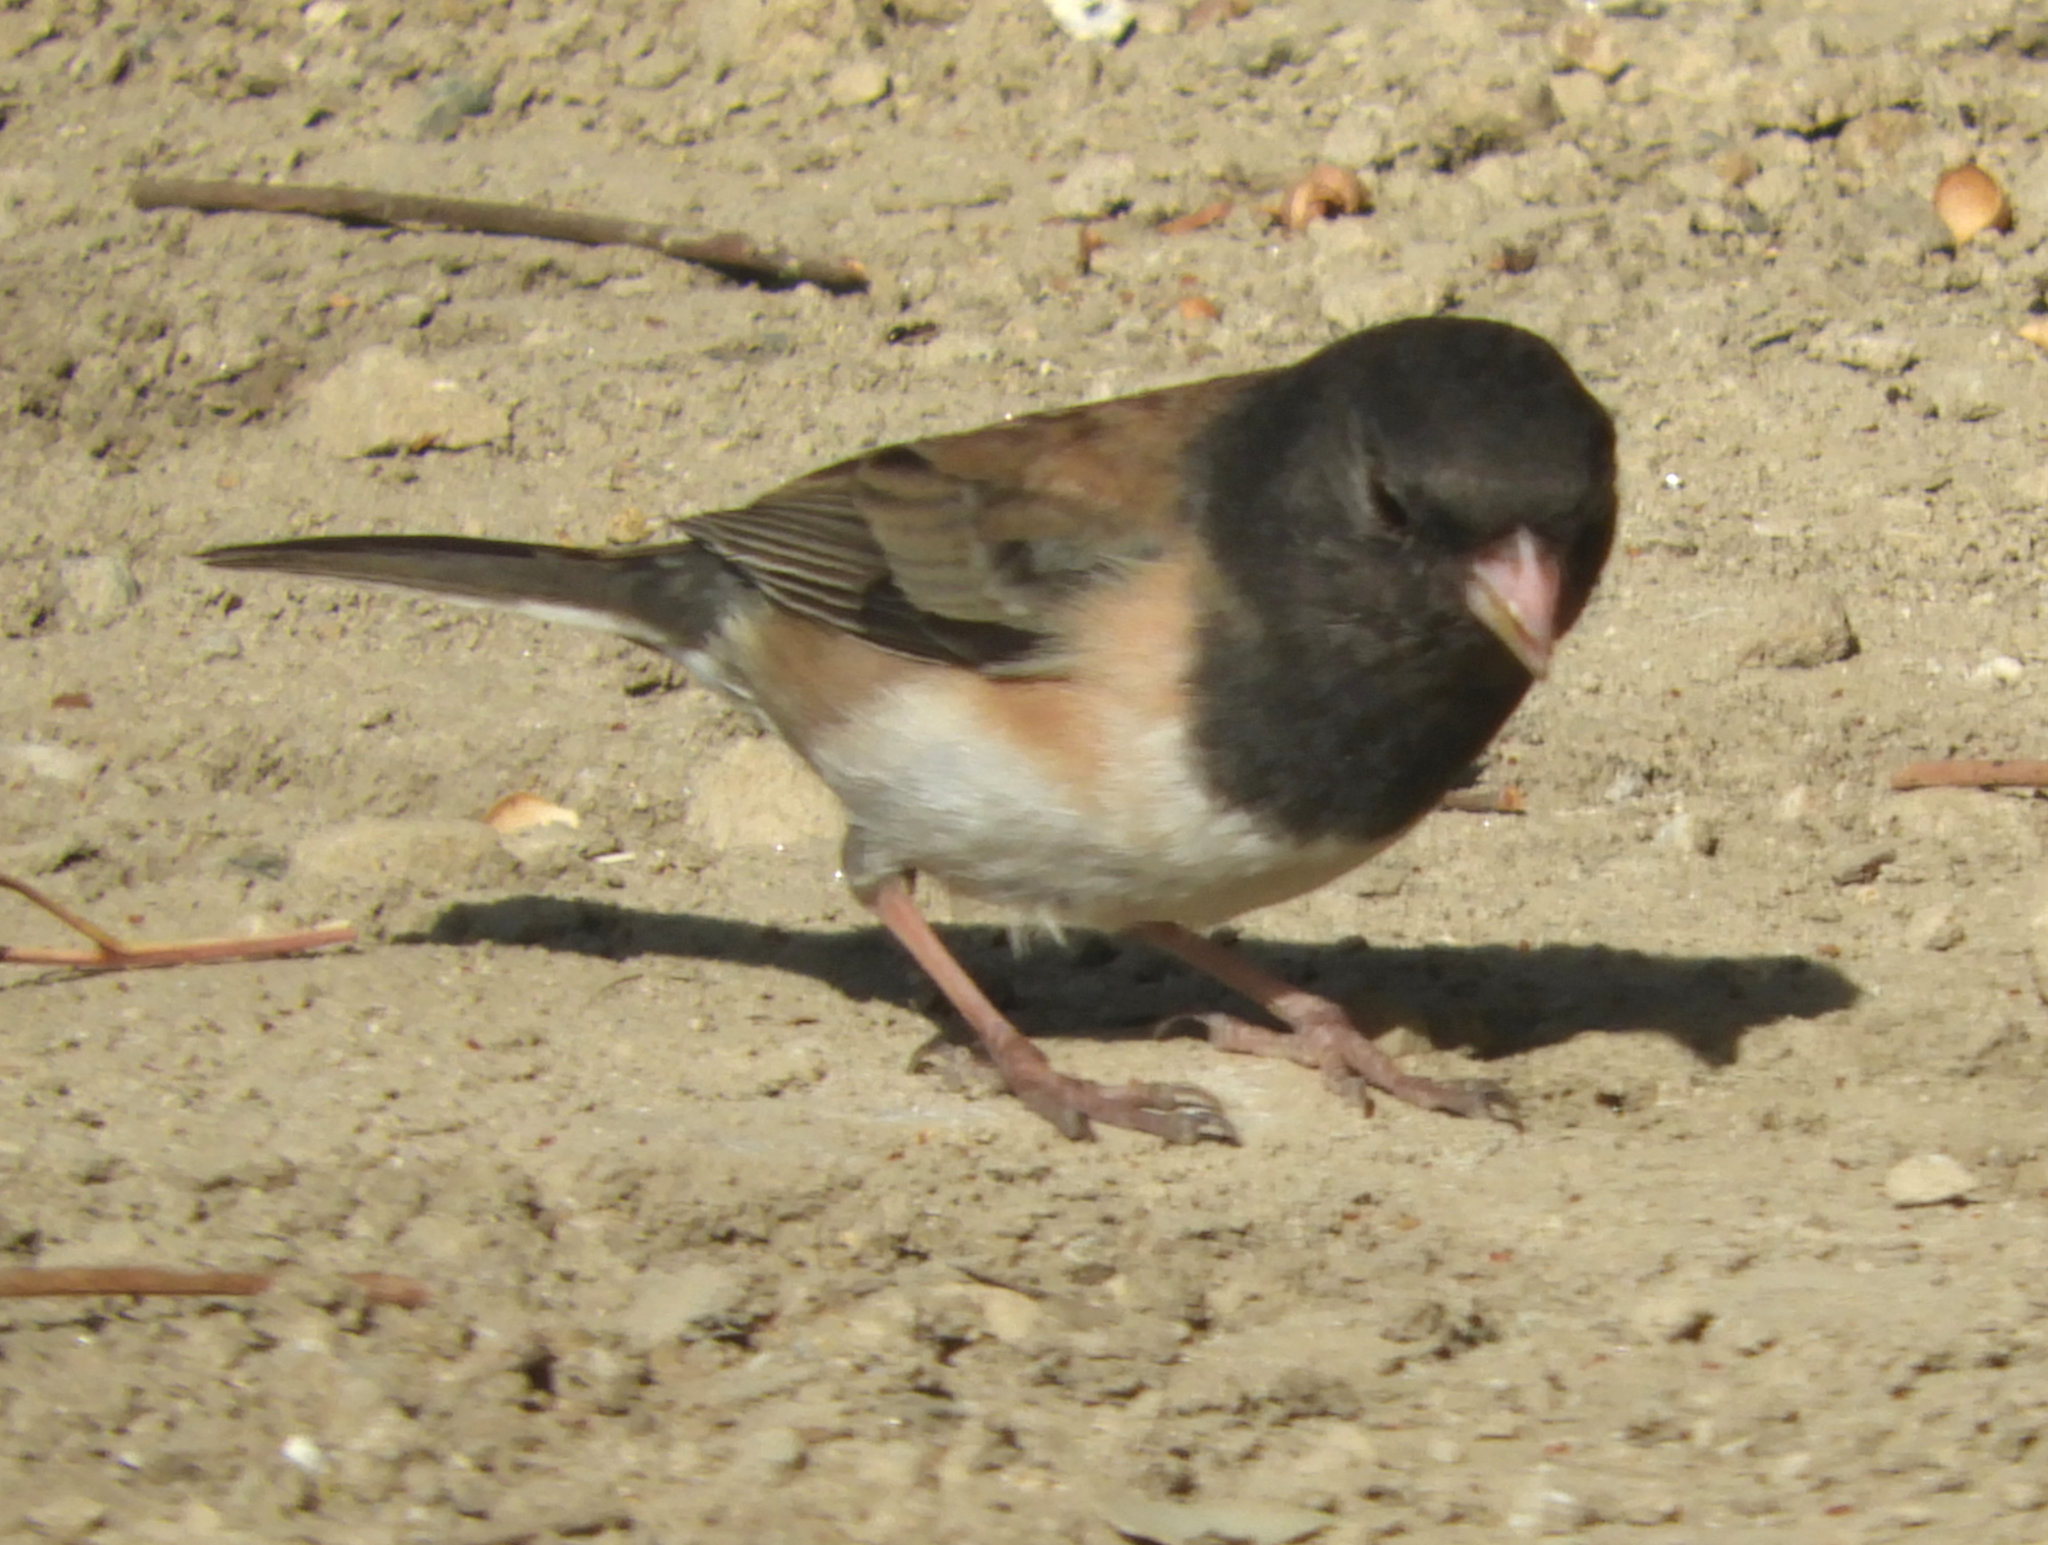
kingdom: Animalia
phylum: Chordata
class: Aves
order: Passeriformes
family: Passerellidae
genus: Junco
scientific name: Junco hyemalis
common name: Dark-eyed junco
